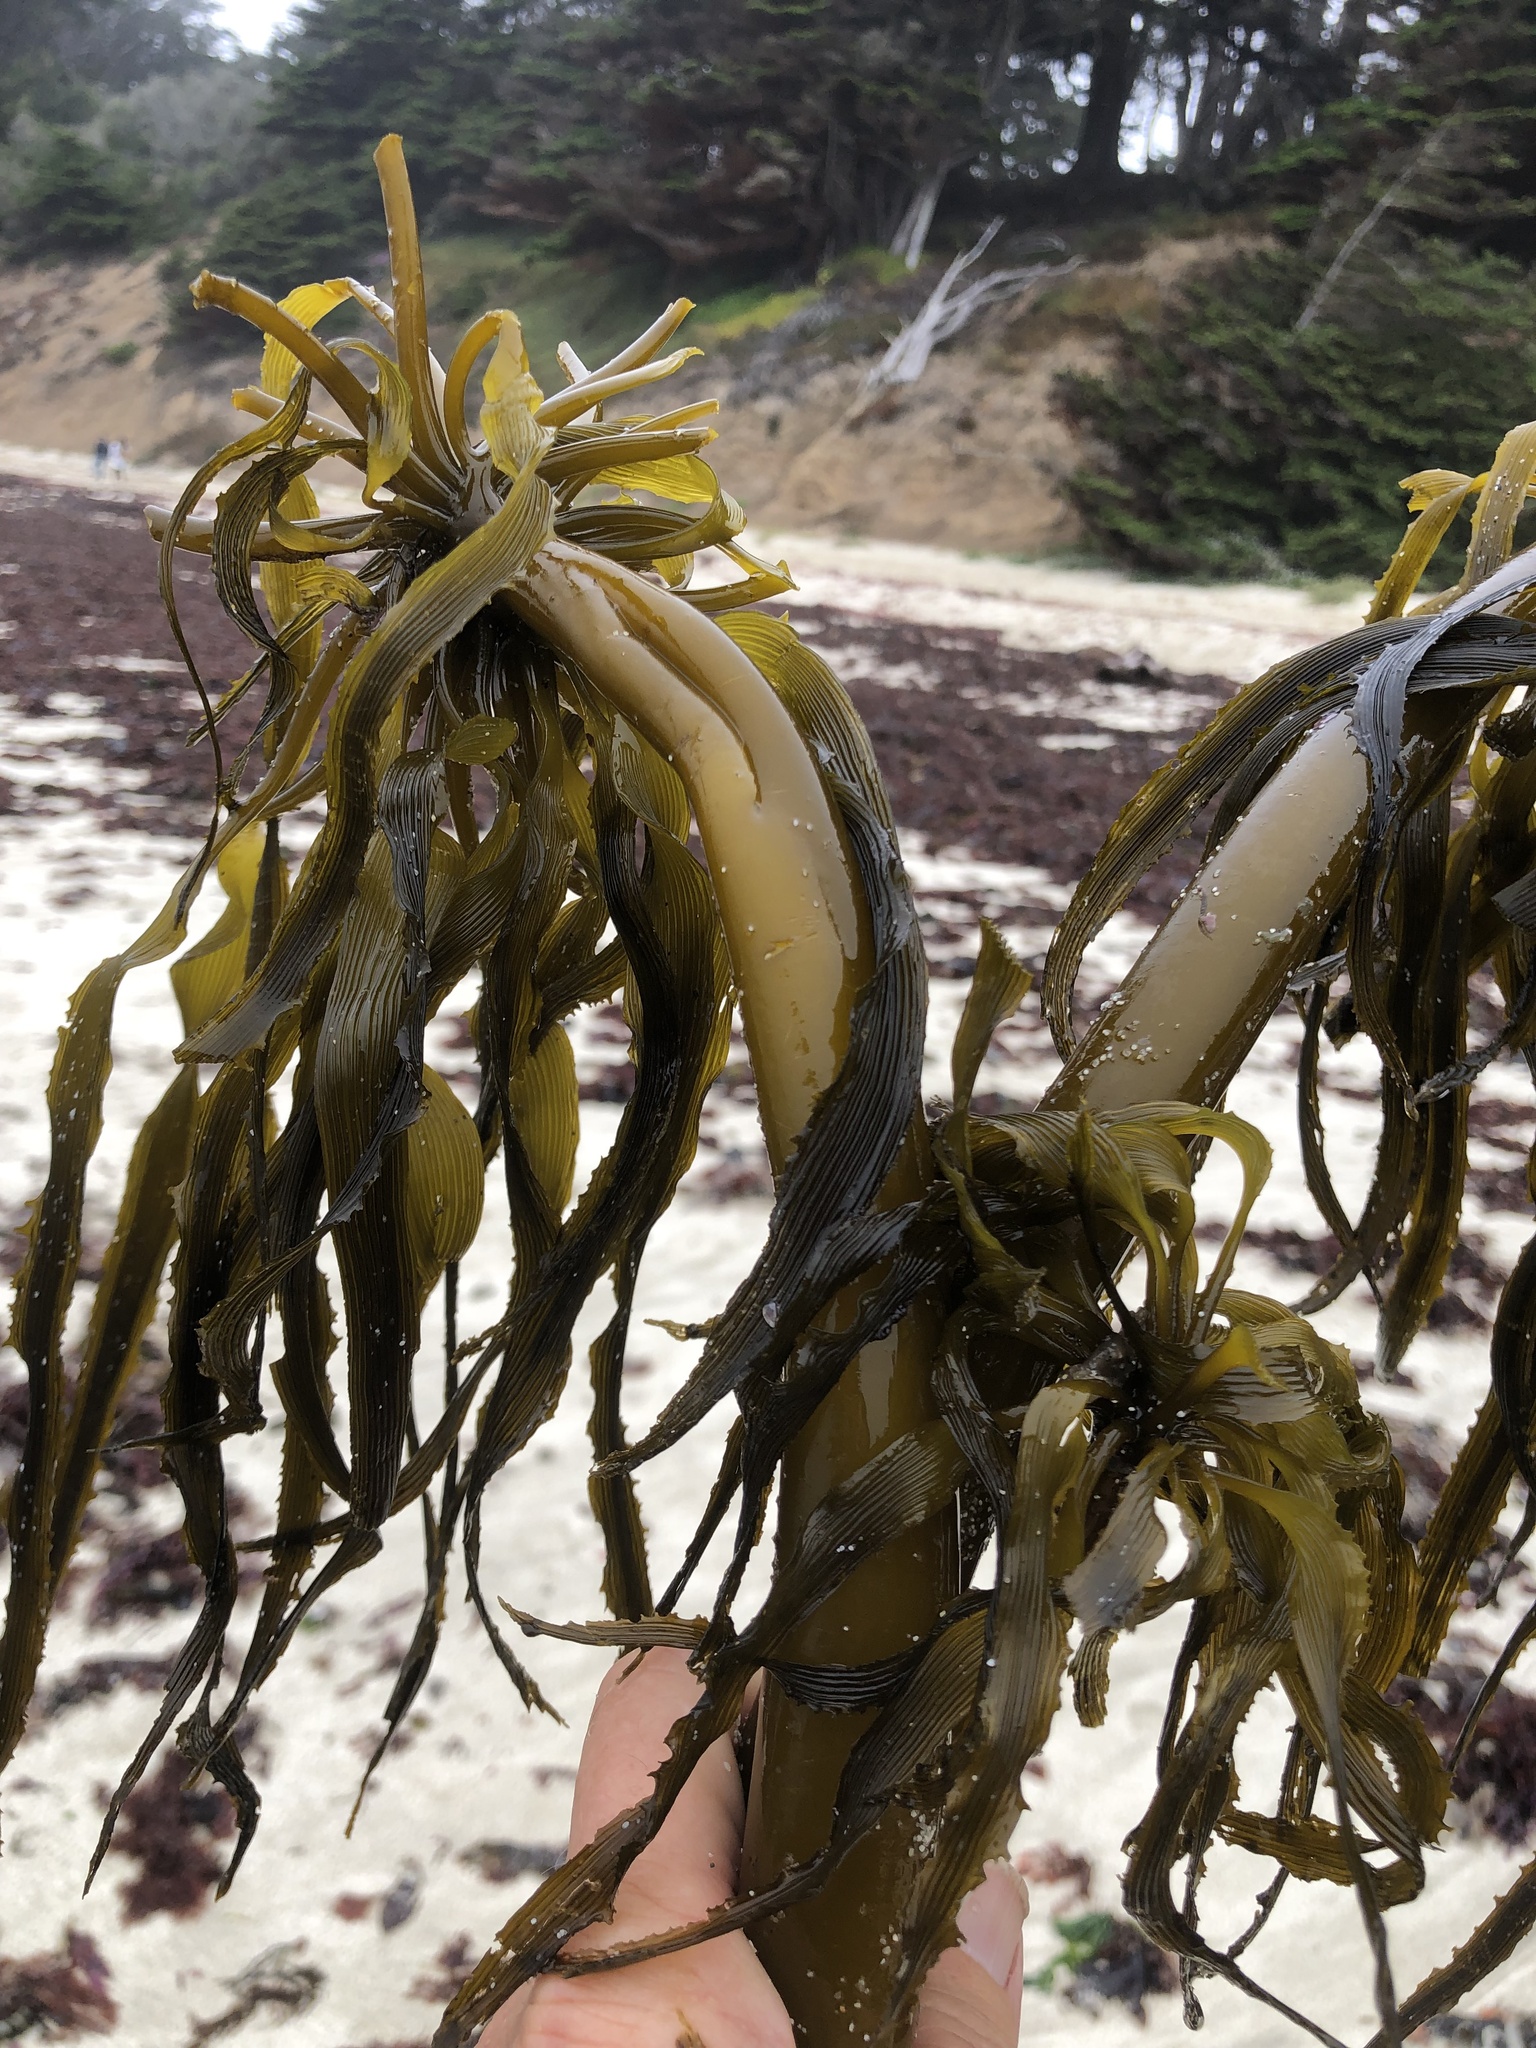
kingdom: Chromista
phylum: Ochrophyta
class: Phaeophyceae
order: Laminariales
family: Laminariaceae
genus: Postelsia
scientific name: Postelsia palmiformis
